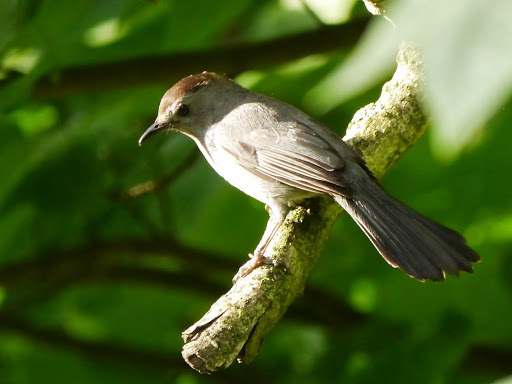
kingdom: Animalia
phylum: Chordata
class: Aves
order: Passeriformes
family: Mimidae
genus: Dumetella
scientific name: Dumetella carolinensis
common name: Gray catbird
